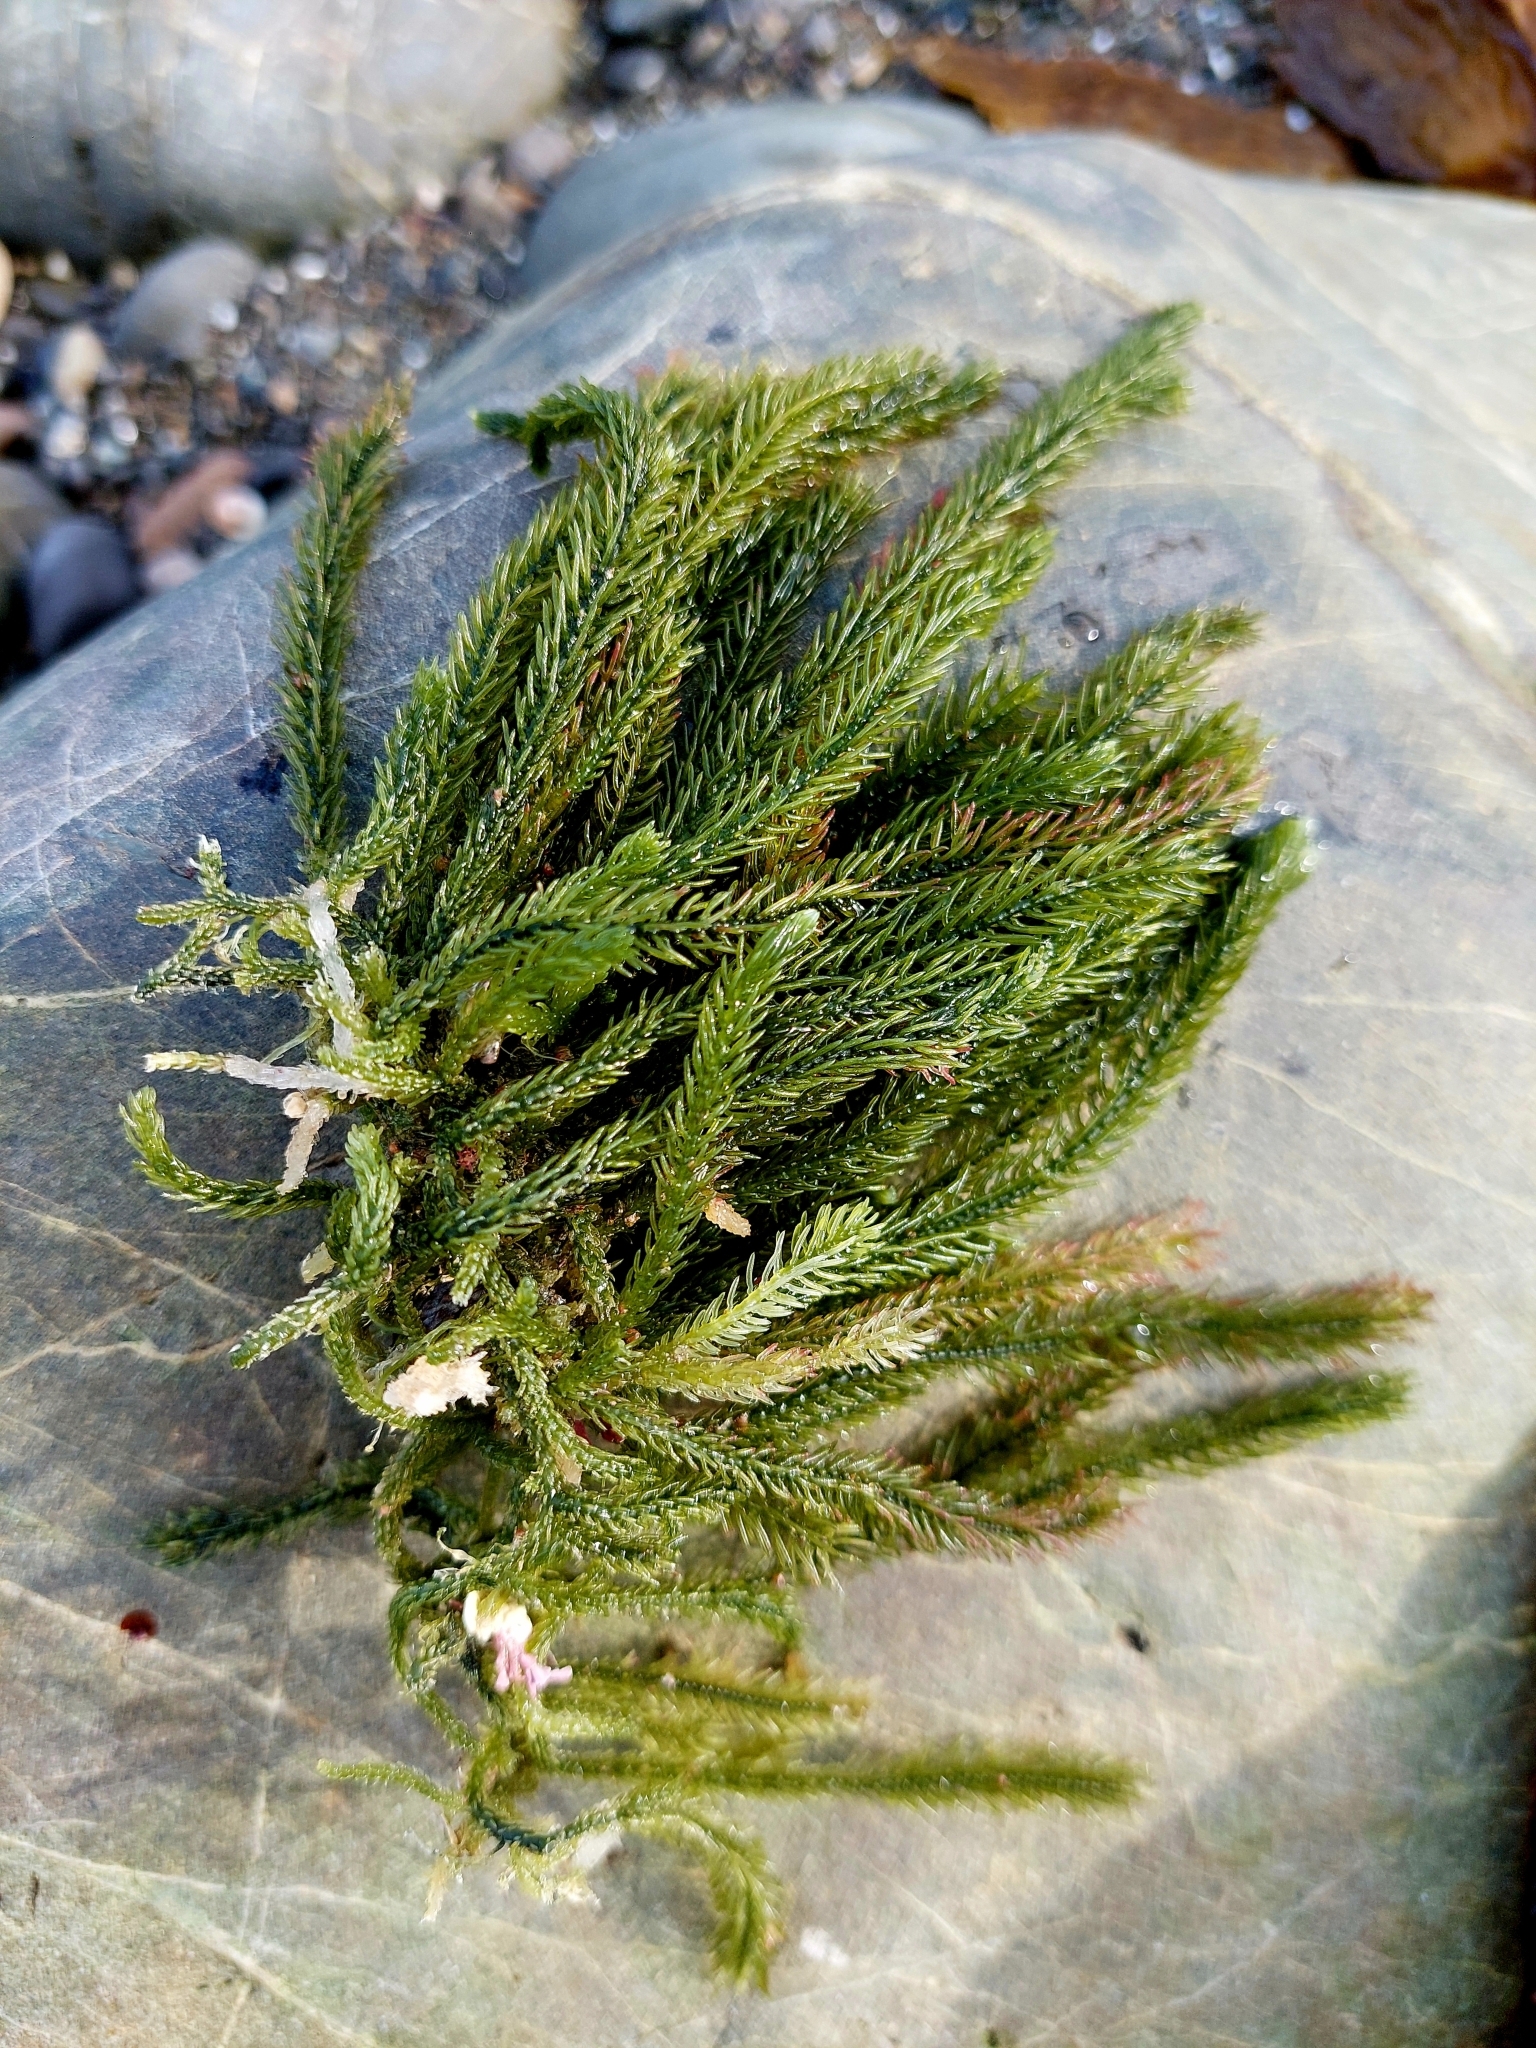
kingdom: Plantae
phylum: Chlorophyta
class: Ulvophyceae
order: Bryopsidales
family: Caulerpaceae
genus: Caulerpa
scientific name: Caulerpa brownii
